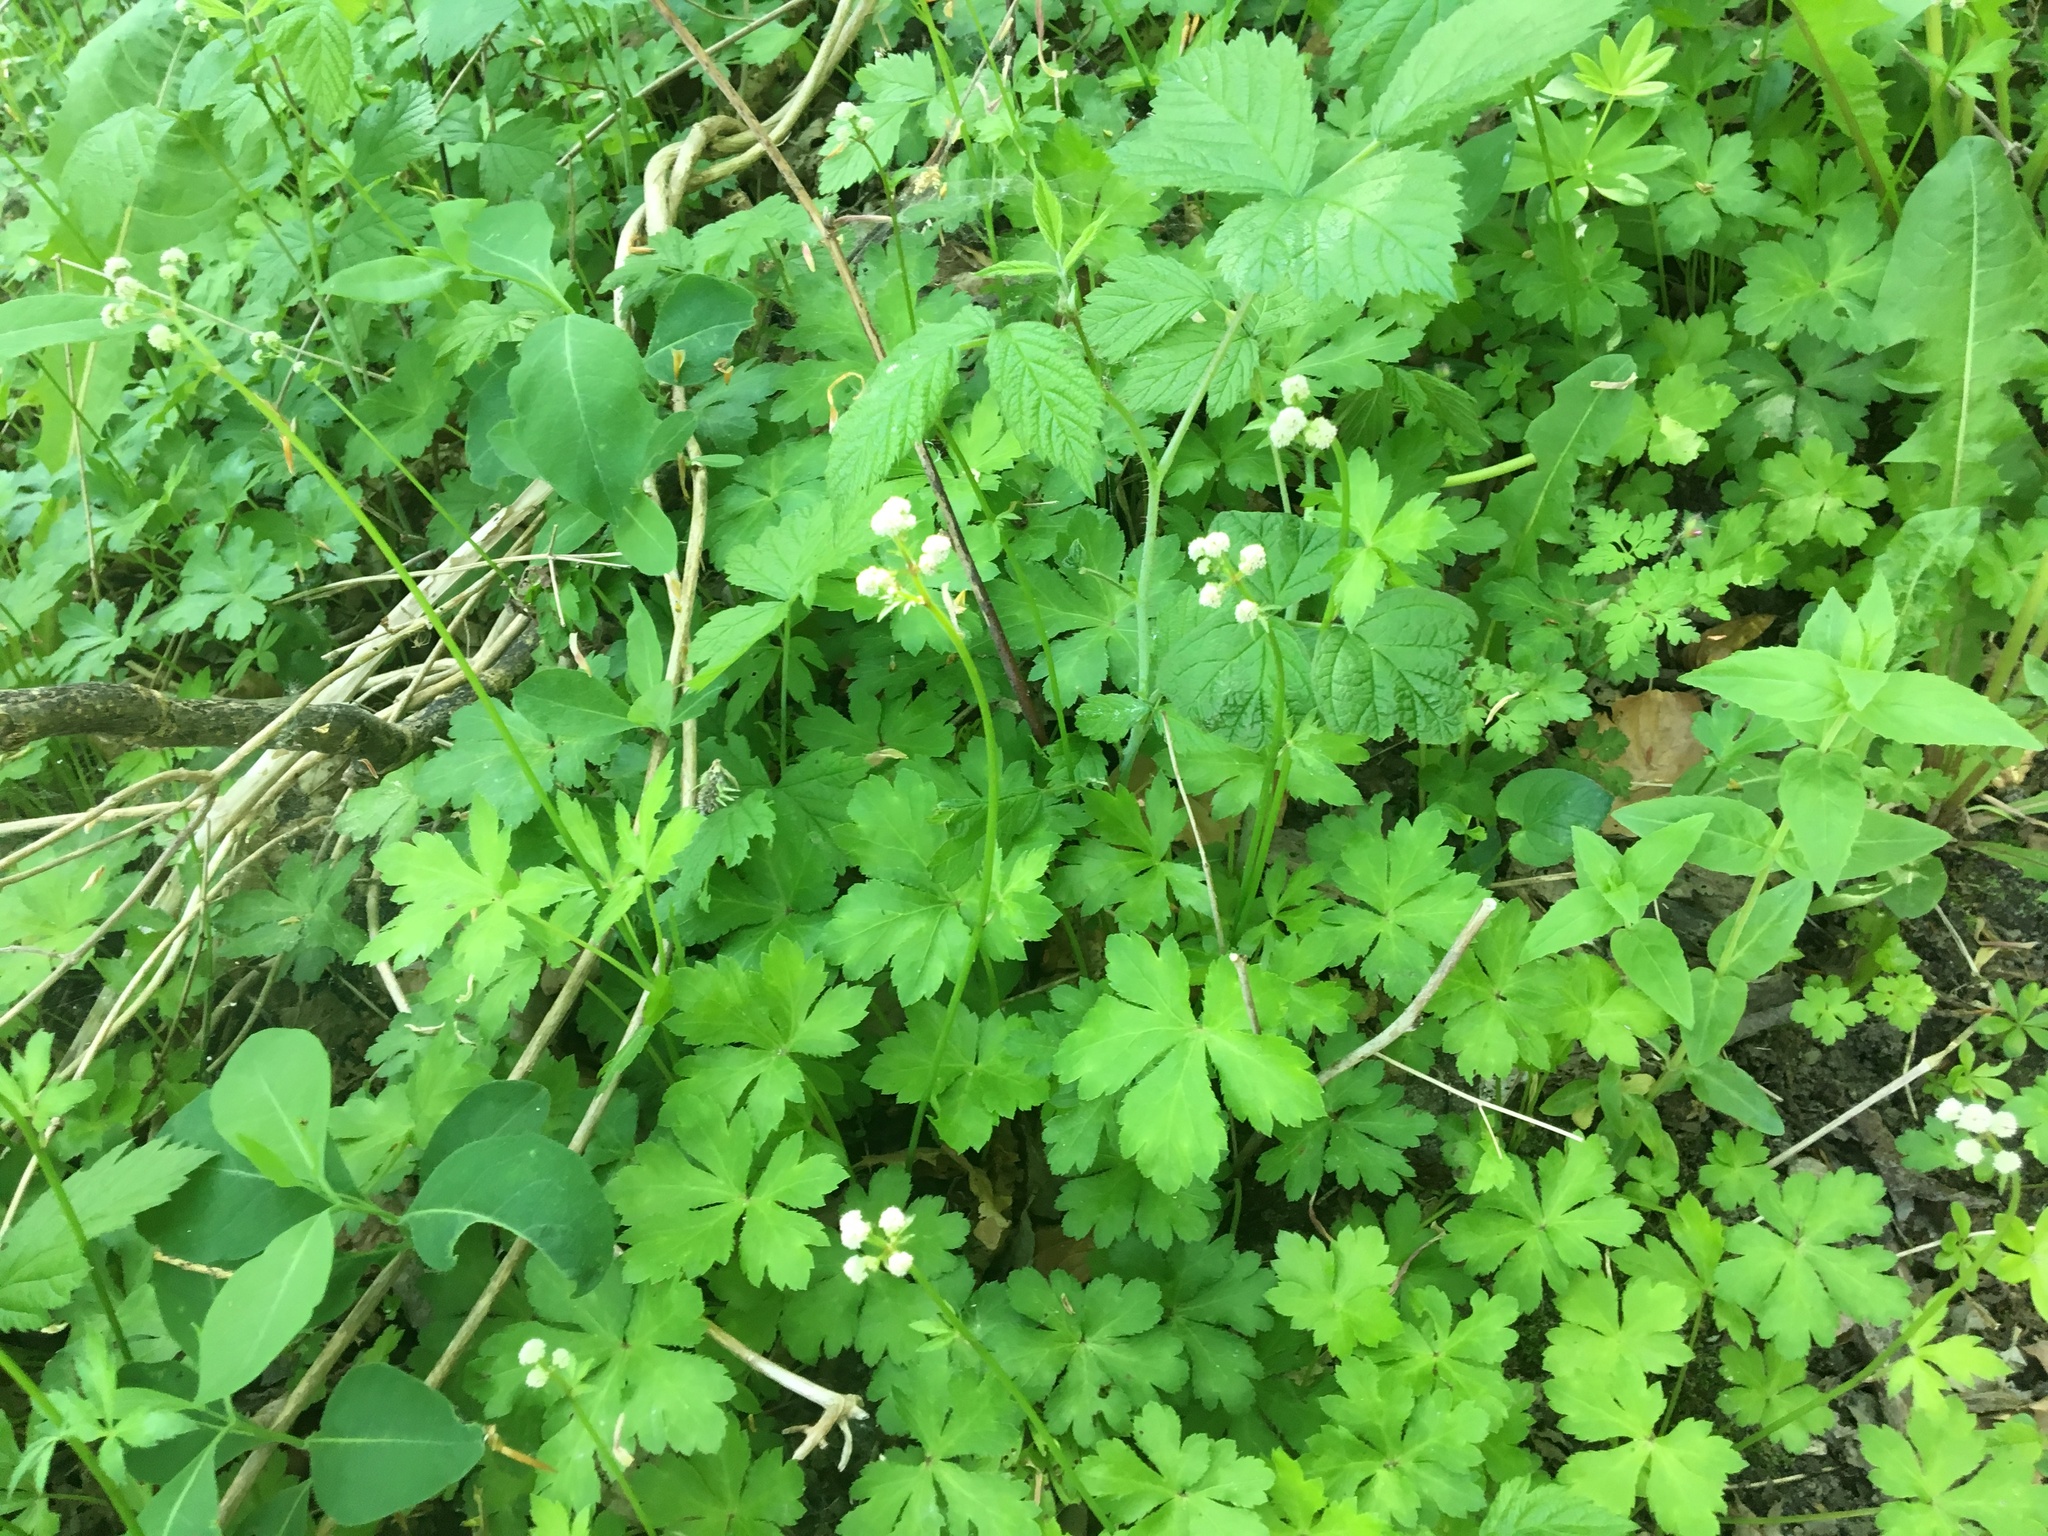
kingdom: Plantae
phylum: Tracheophyta
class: Magnoliopsida
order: Apiales
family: Apiaceae
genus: Sanicula
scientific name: Sanicula europaea
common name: Sanicle
